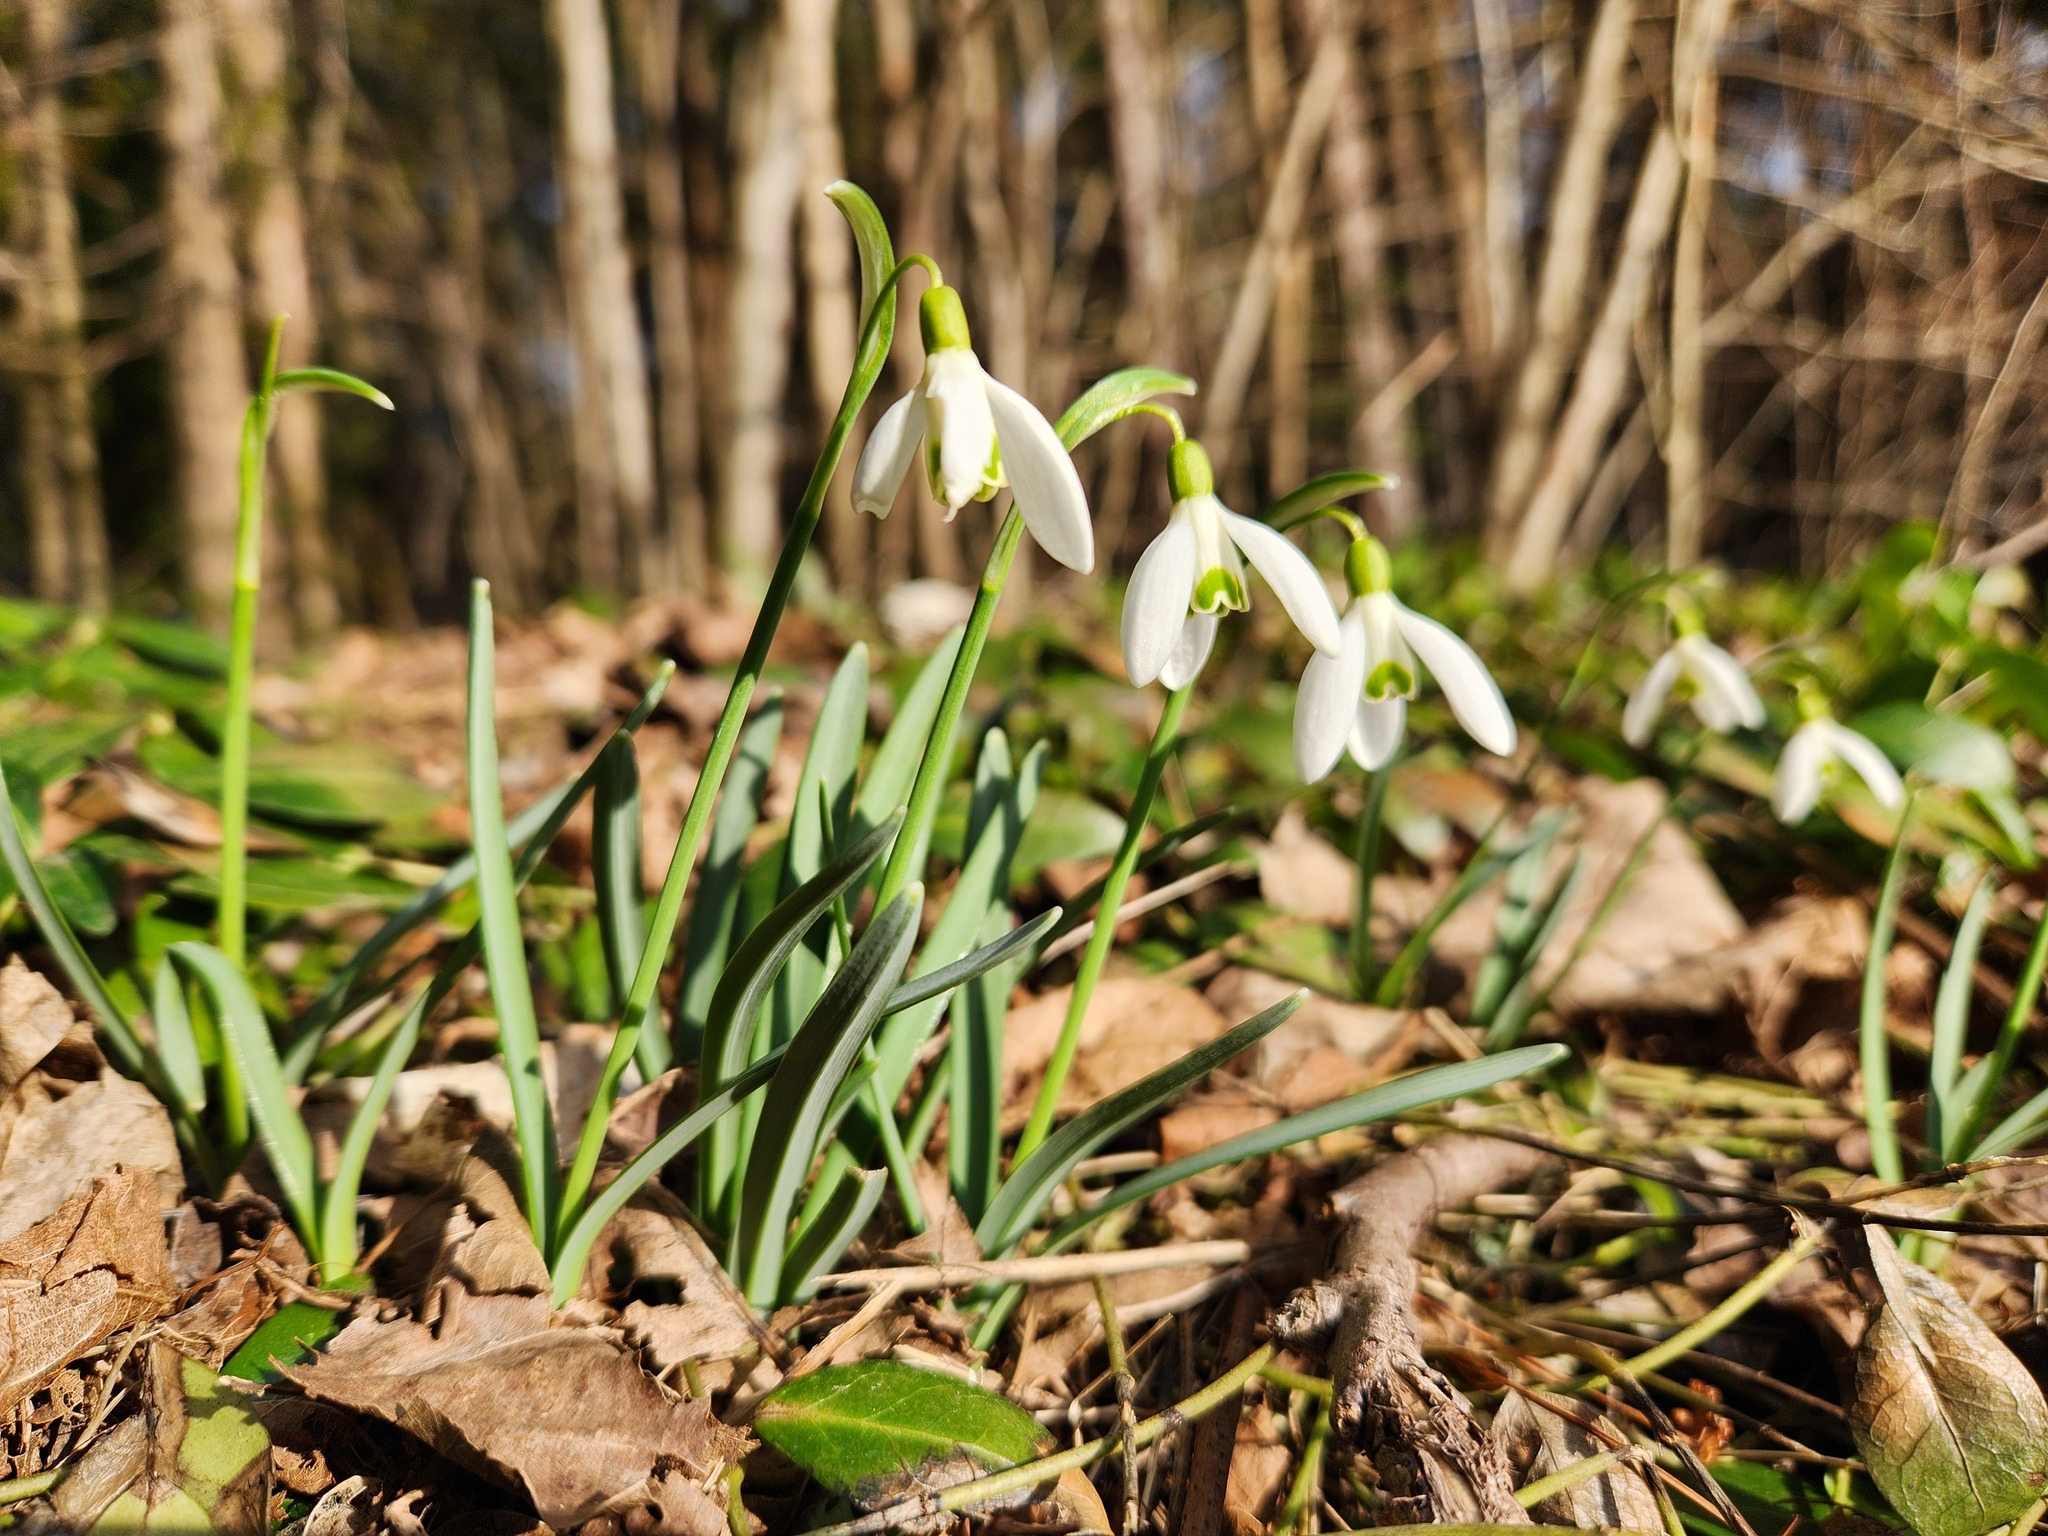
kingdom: Plantae
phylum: Tracheophyta
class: Liliopsida
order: Asparagales
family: Amaryllidaceae
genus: Galanthus
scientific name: Galanthus nivalis
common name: Snowdrop
